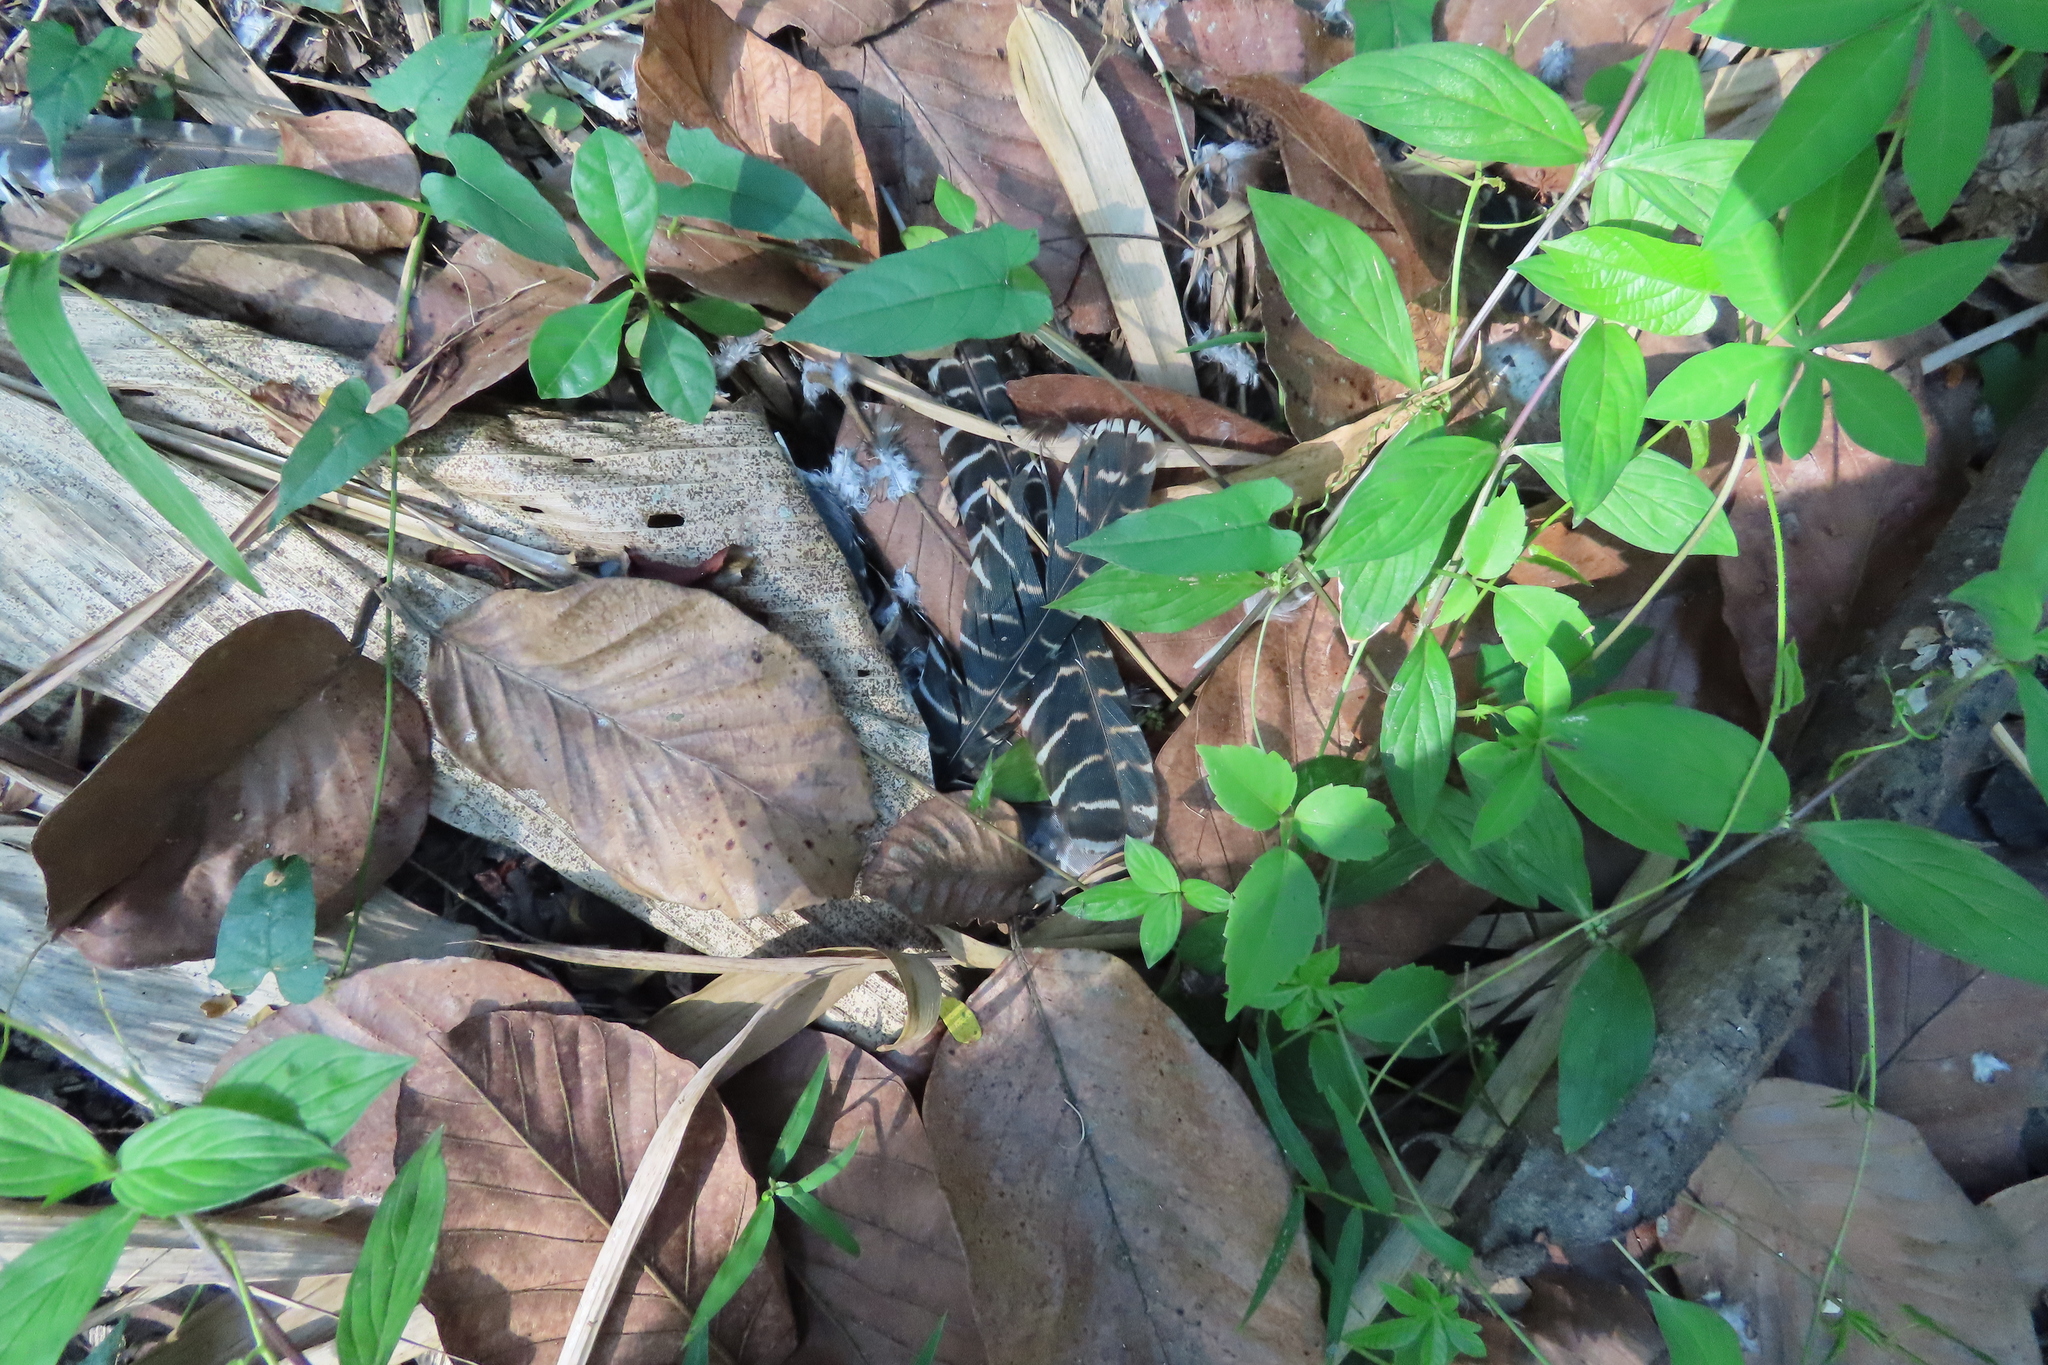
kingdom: Animalia
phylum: Chordata
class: Aves
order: Cuculiformes
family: Cuculidae
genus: Eudynamys
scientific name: Eudynamys scolopaceus
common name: Asian koel
